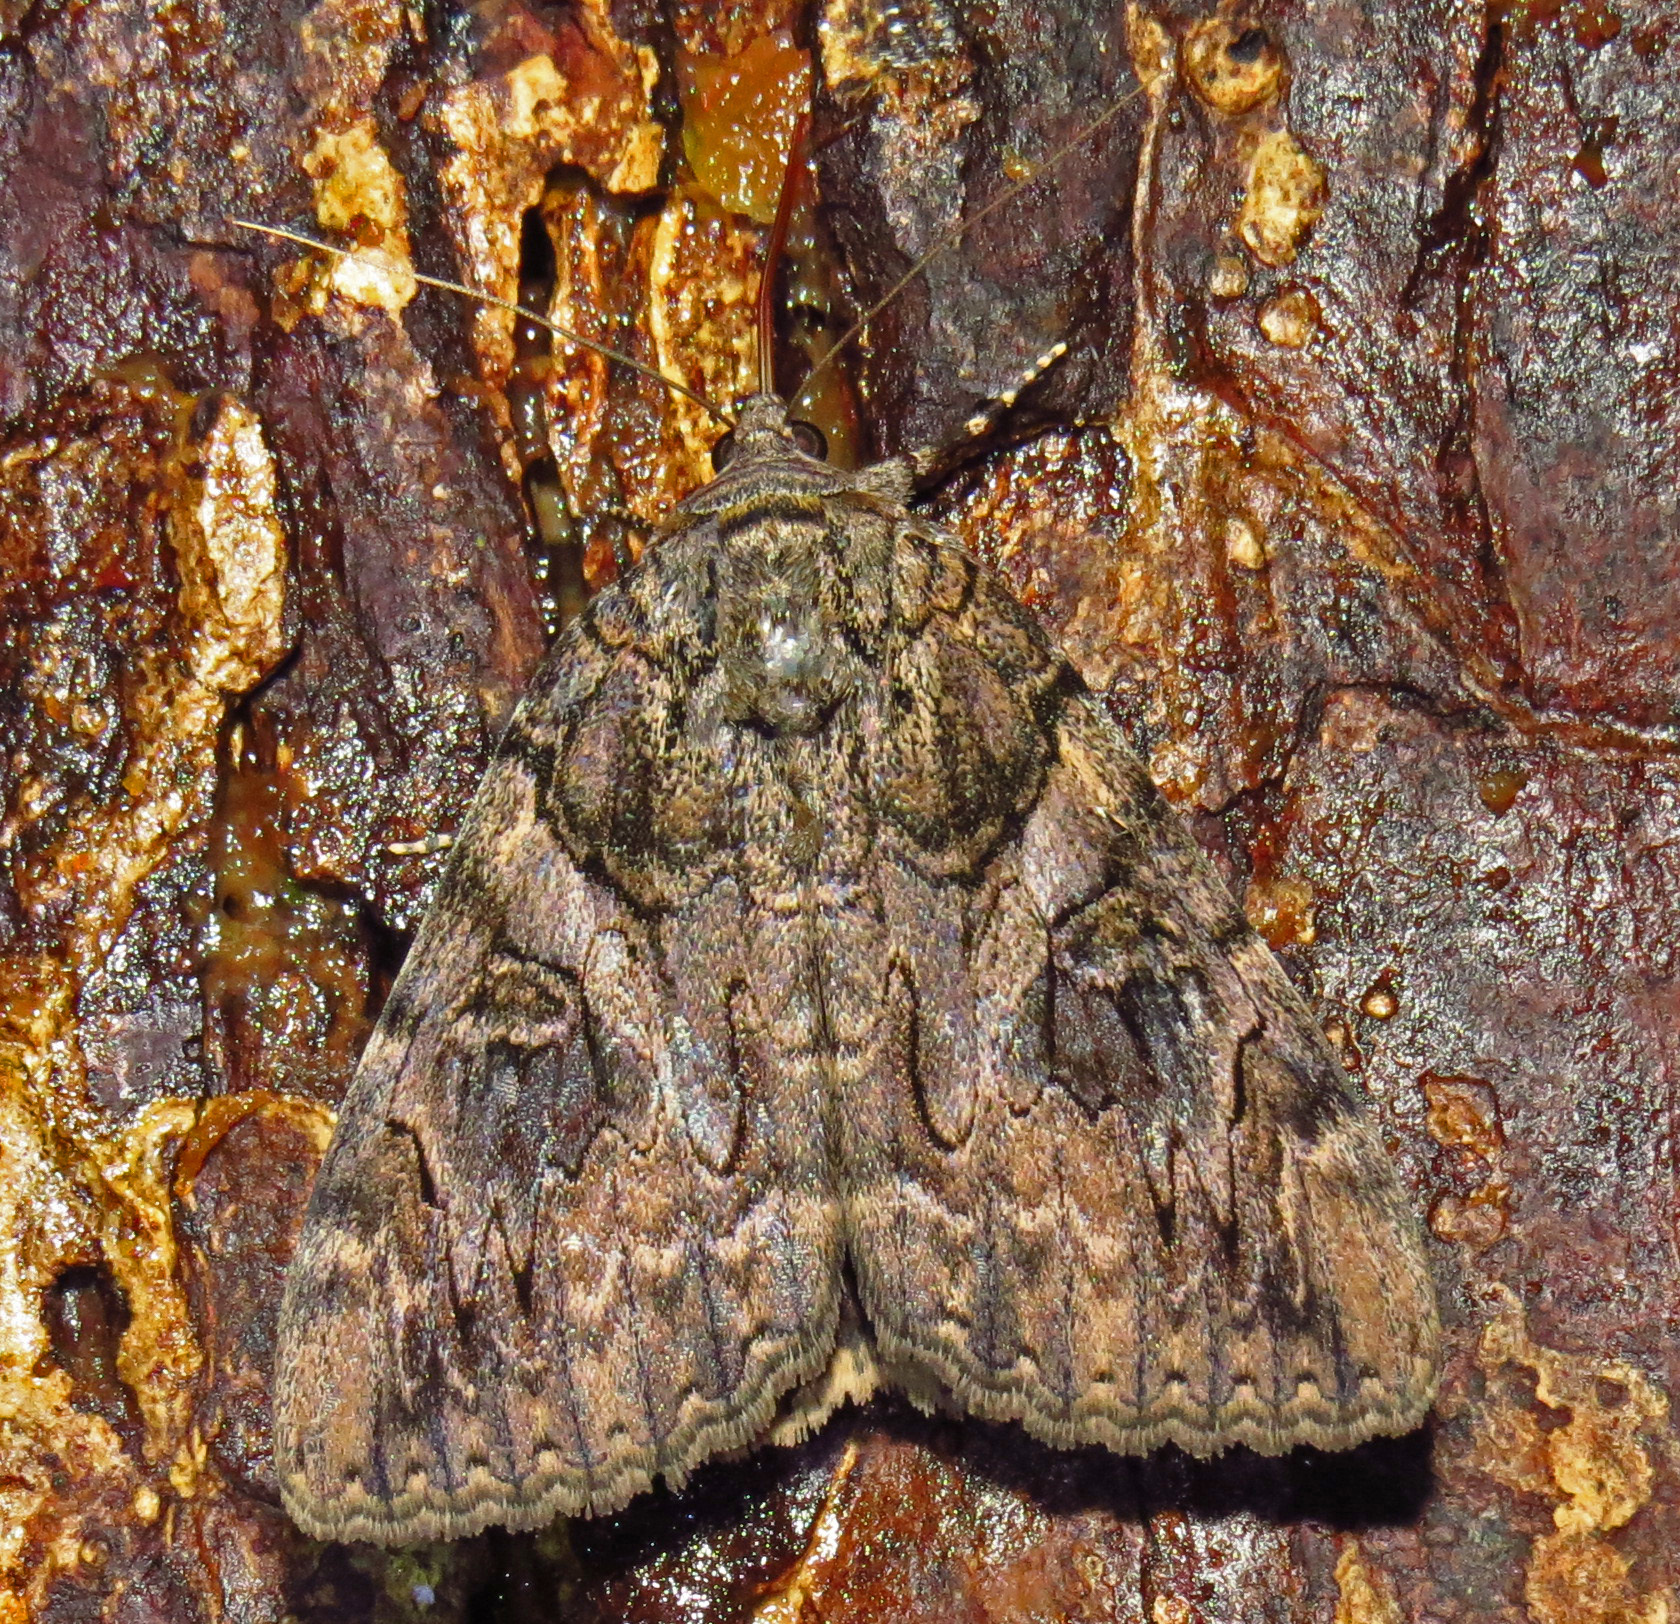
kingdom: Animalia
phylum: Arthropoda
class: Insecta
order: Lepidoptera
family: Erebidae
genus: Catocala
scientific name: Catocala piatrix
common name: The penitent underwing
